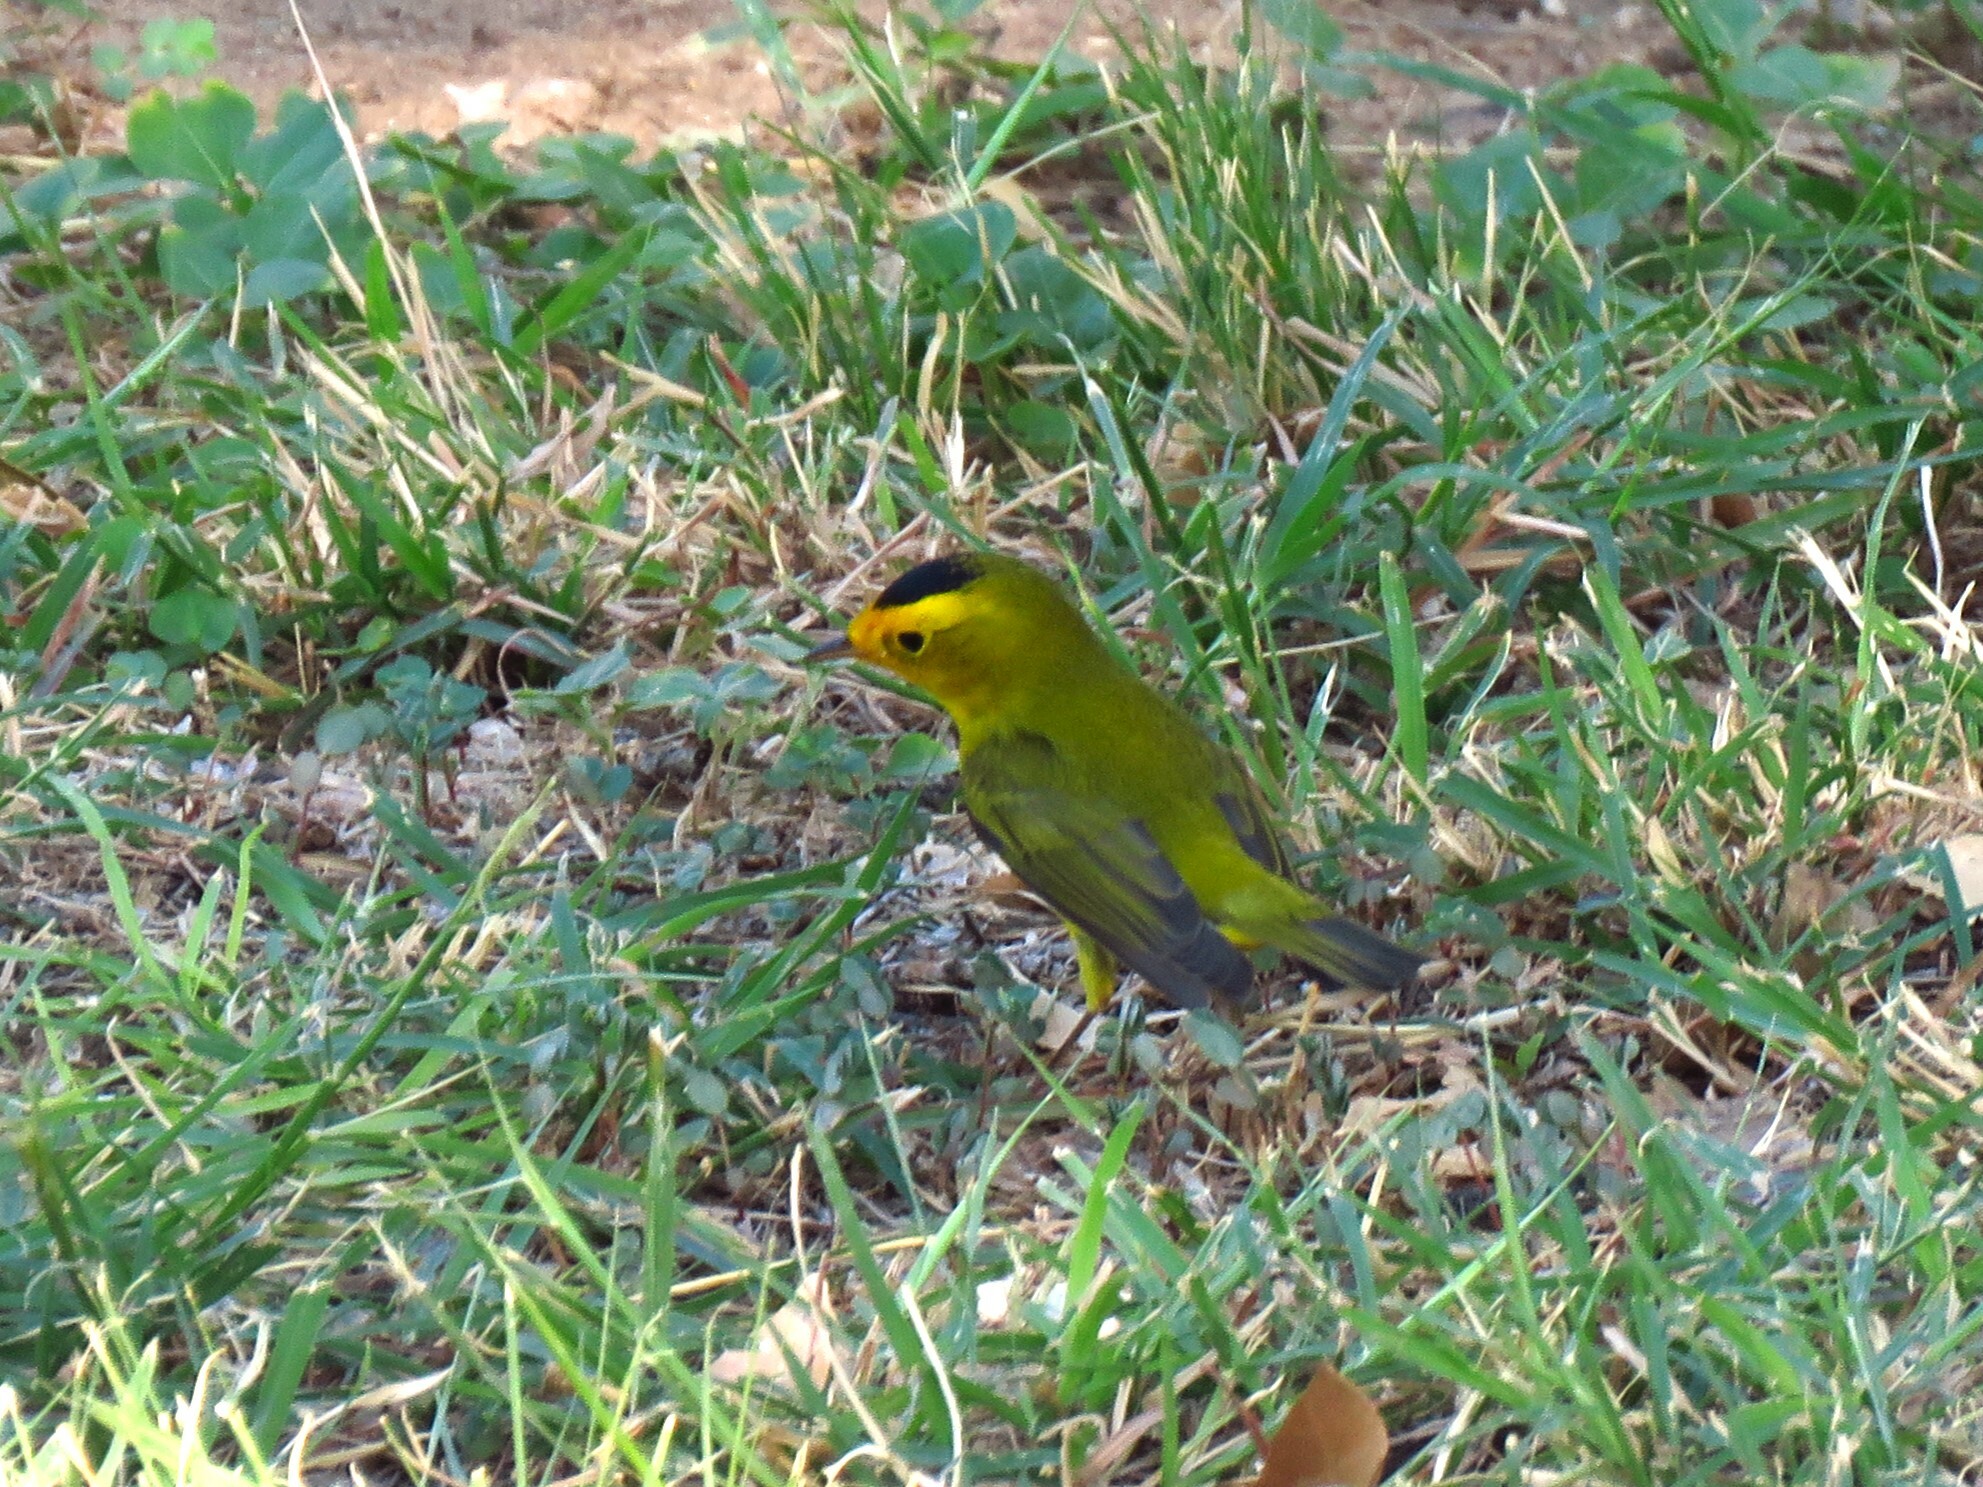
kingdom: Animalia
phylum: Chordata
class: Aves
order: Passeriformes
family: Parulidae
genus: Cardellina
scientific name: Cardellina pusilla
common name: Wilson's warbler
